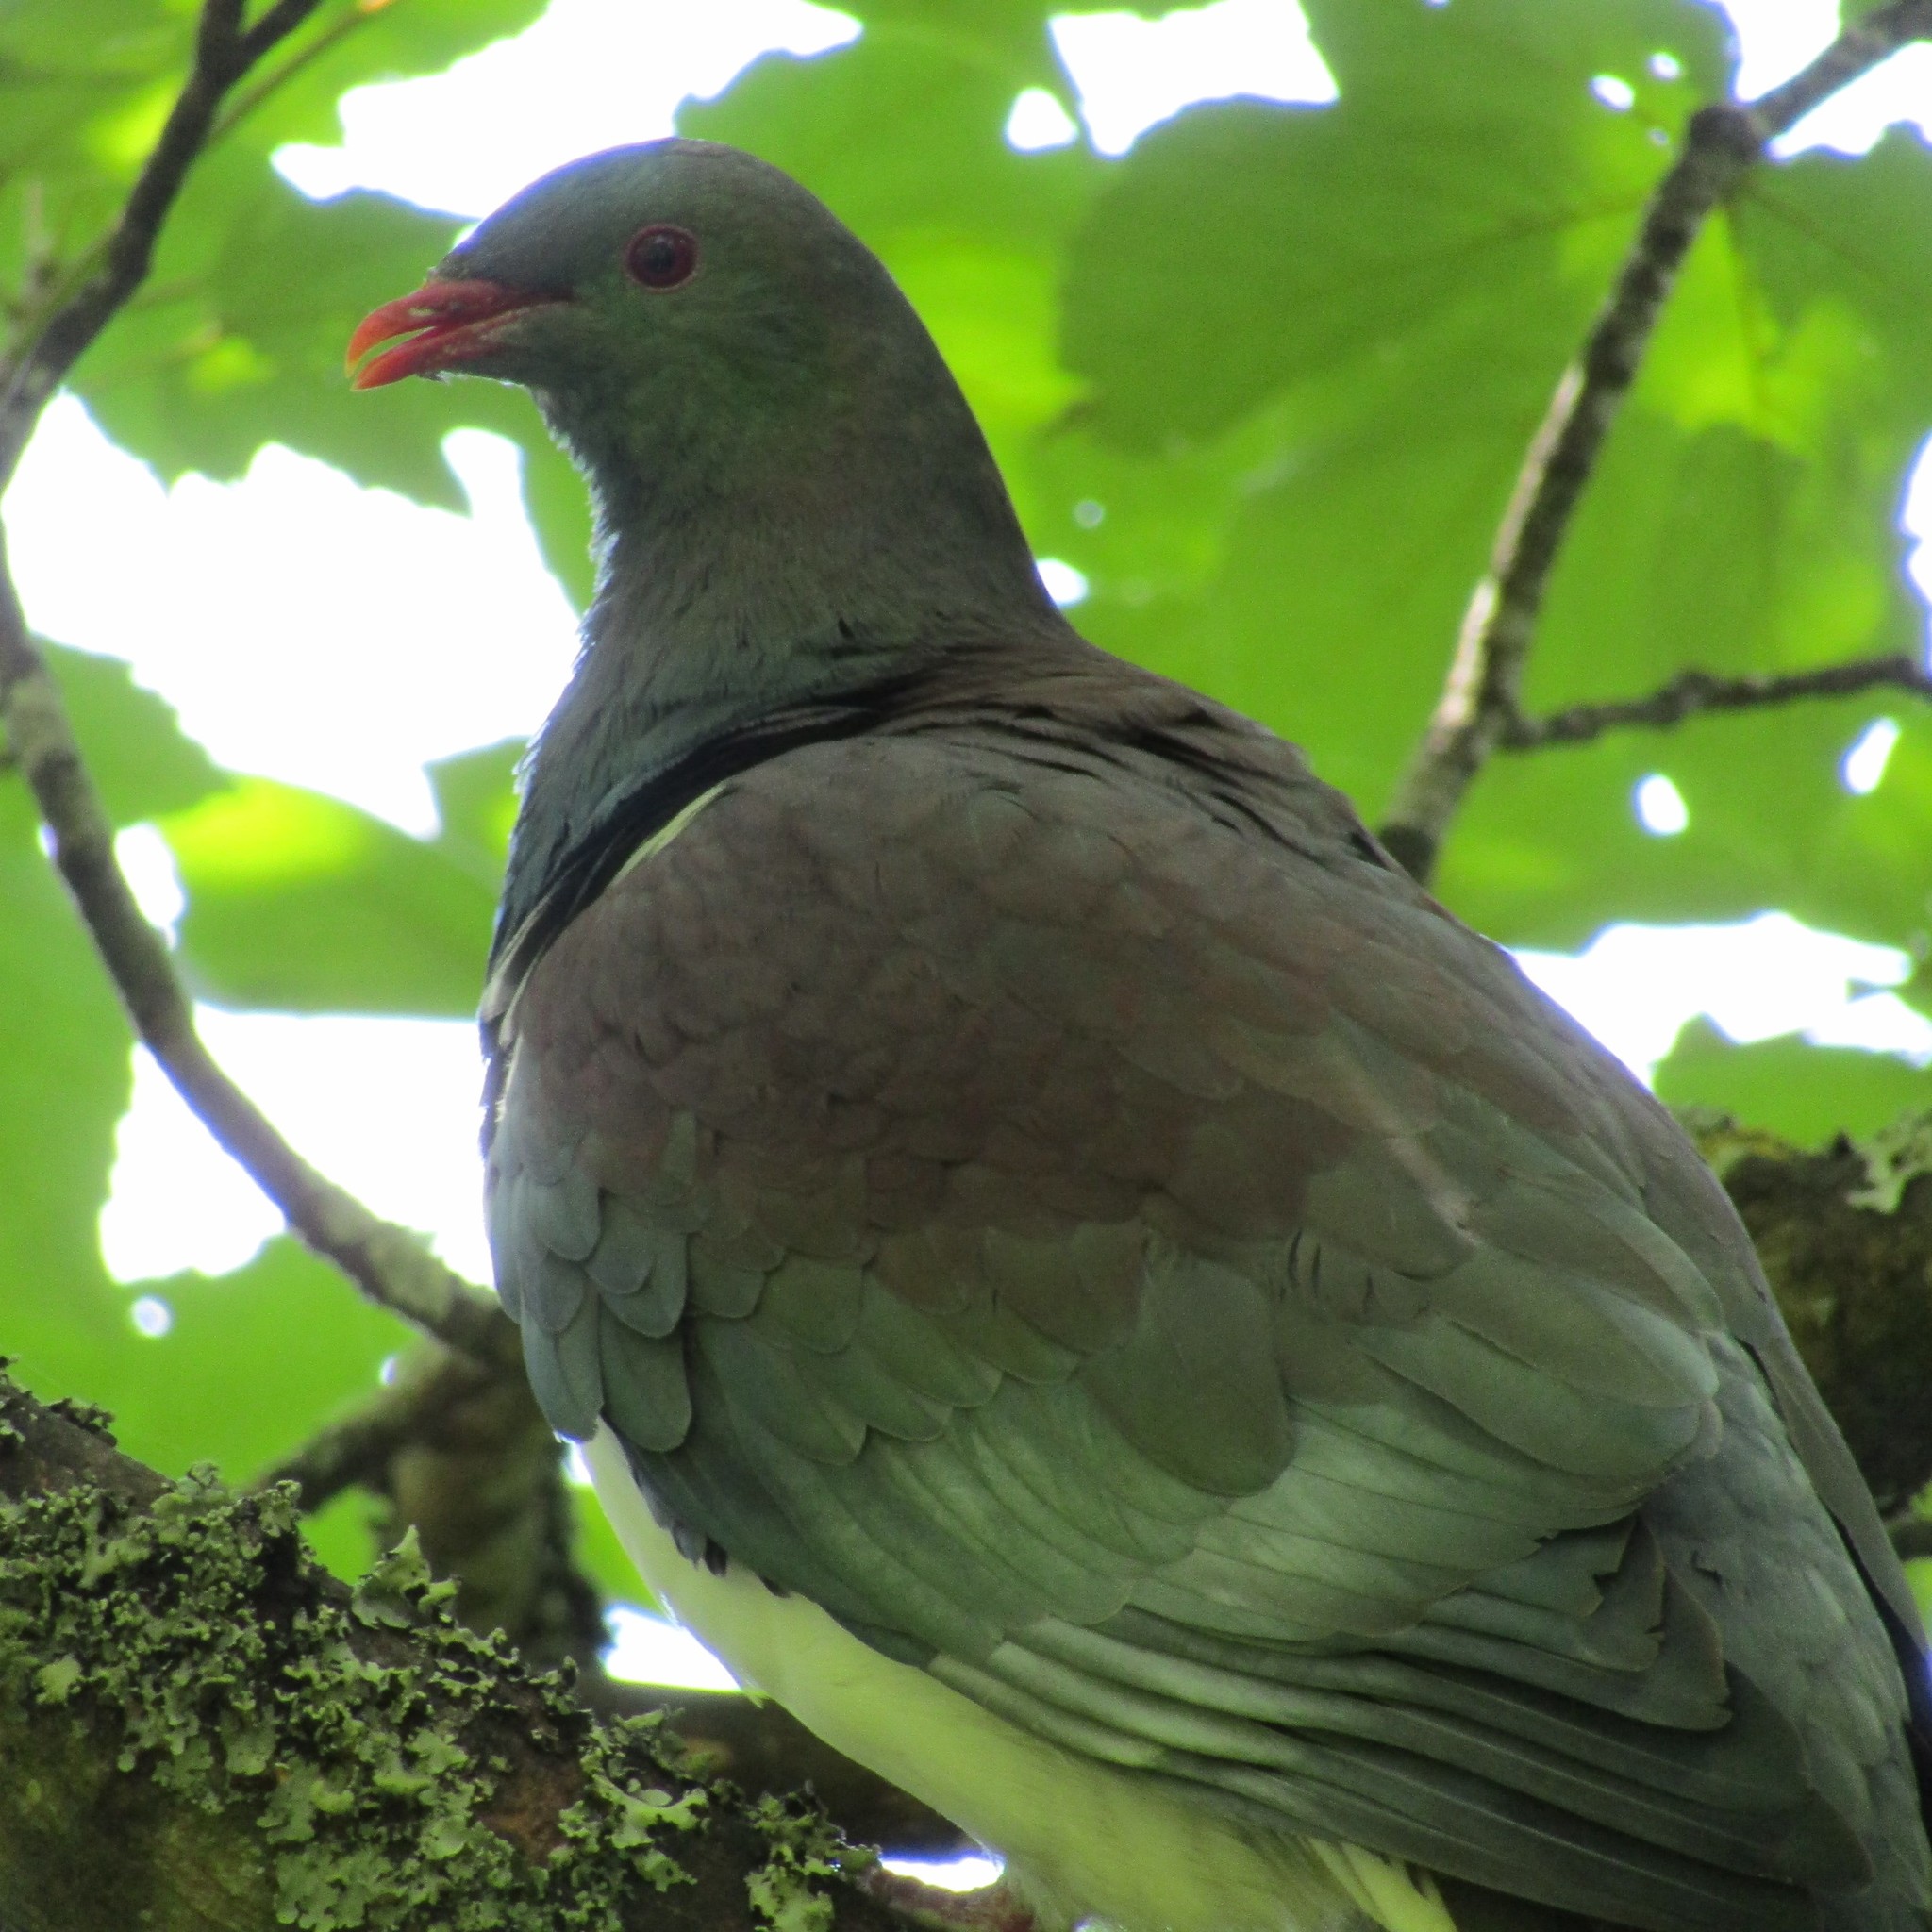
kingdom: Animalia
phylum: Chordata
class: Aves
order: Columbiformes
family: Columbidae
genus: Hemiphaga
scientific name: Hemiphaga novaeseelandiae
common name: New zealand pigeon
